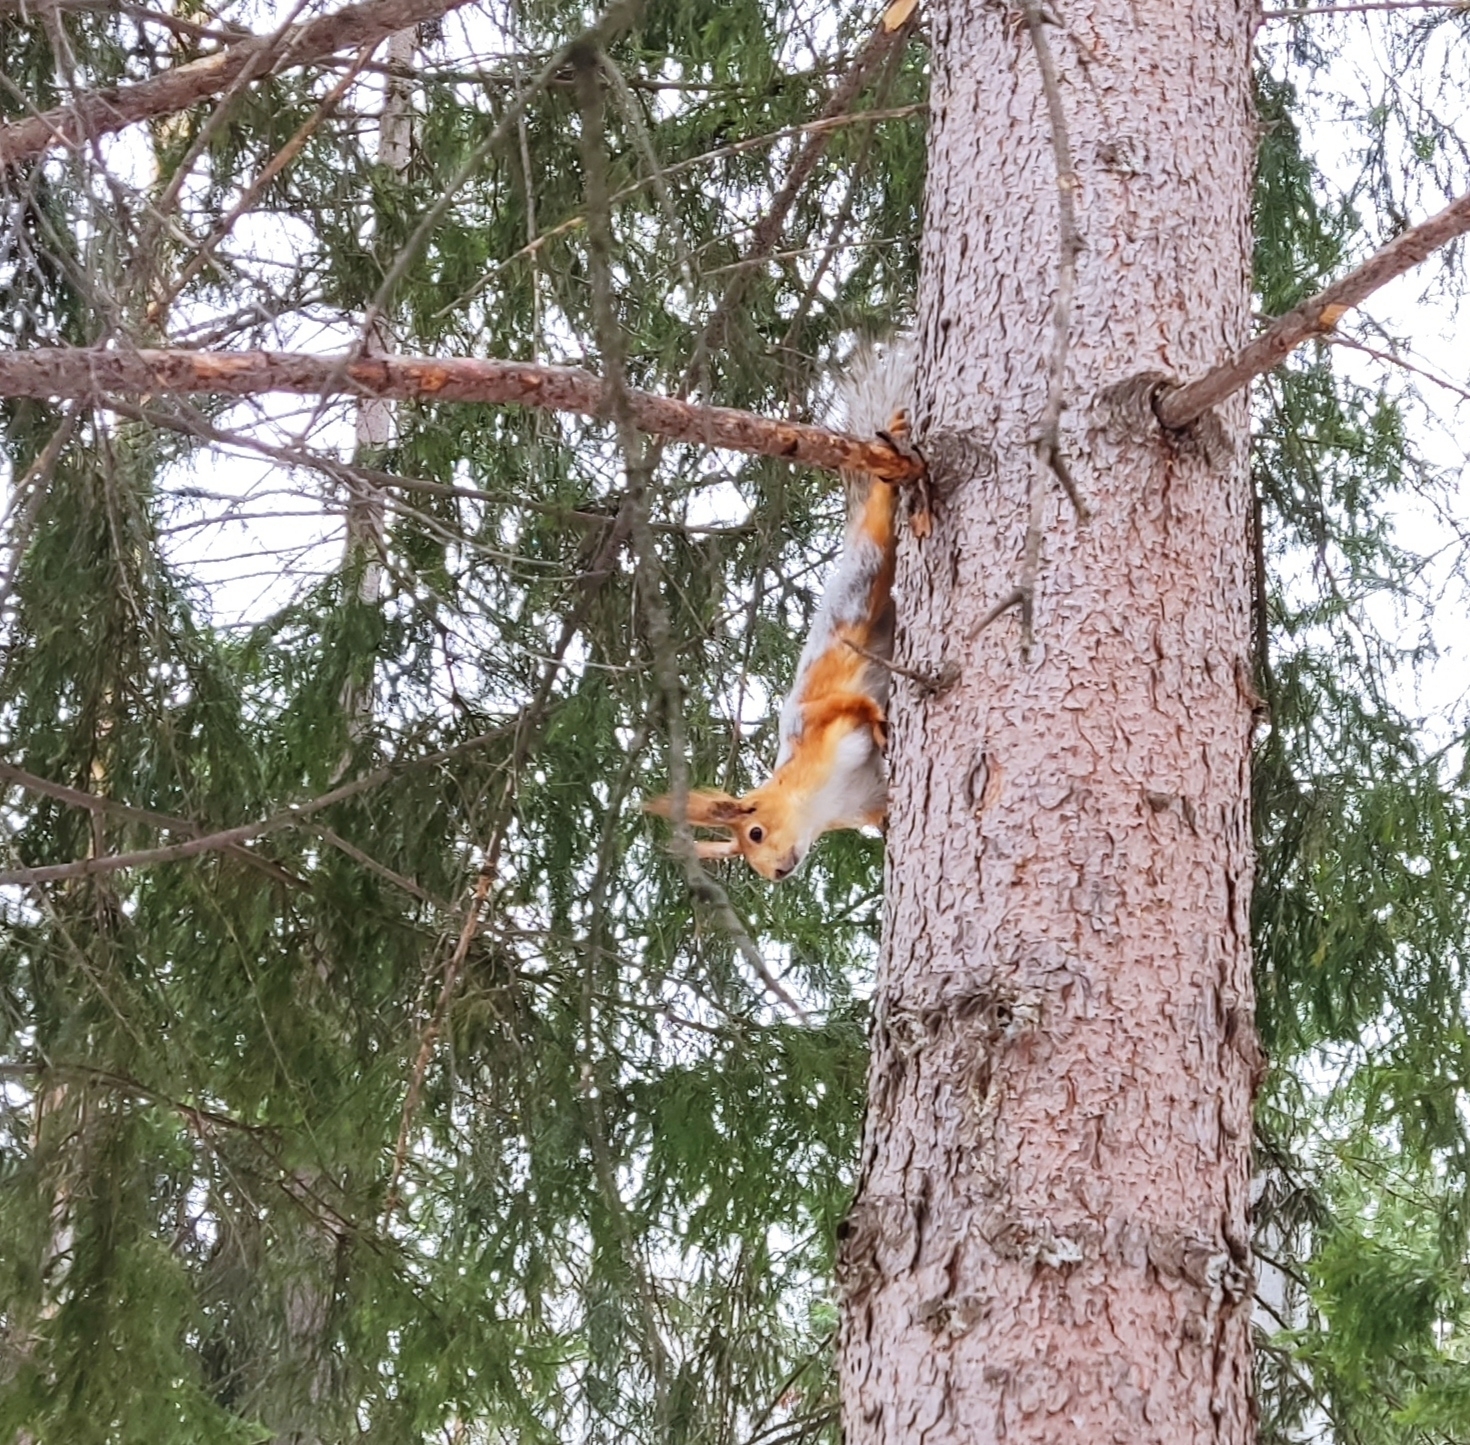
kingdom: Animalia
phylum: Chordata
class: Mammalia
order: Rodentia
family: Sciuridae
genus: Sciurus
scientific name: Sciurus vulgaris
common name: Eurasian red squirrel
